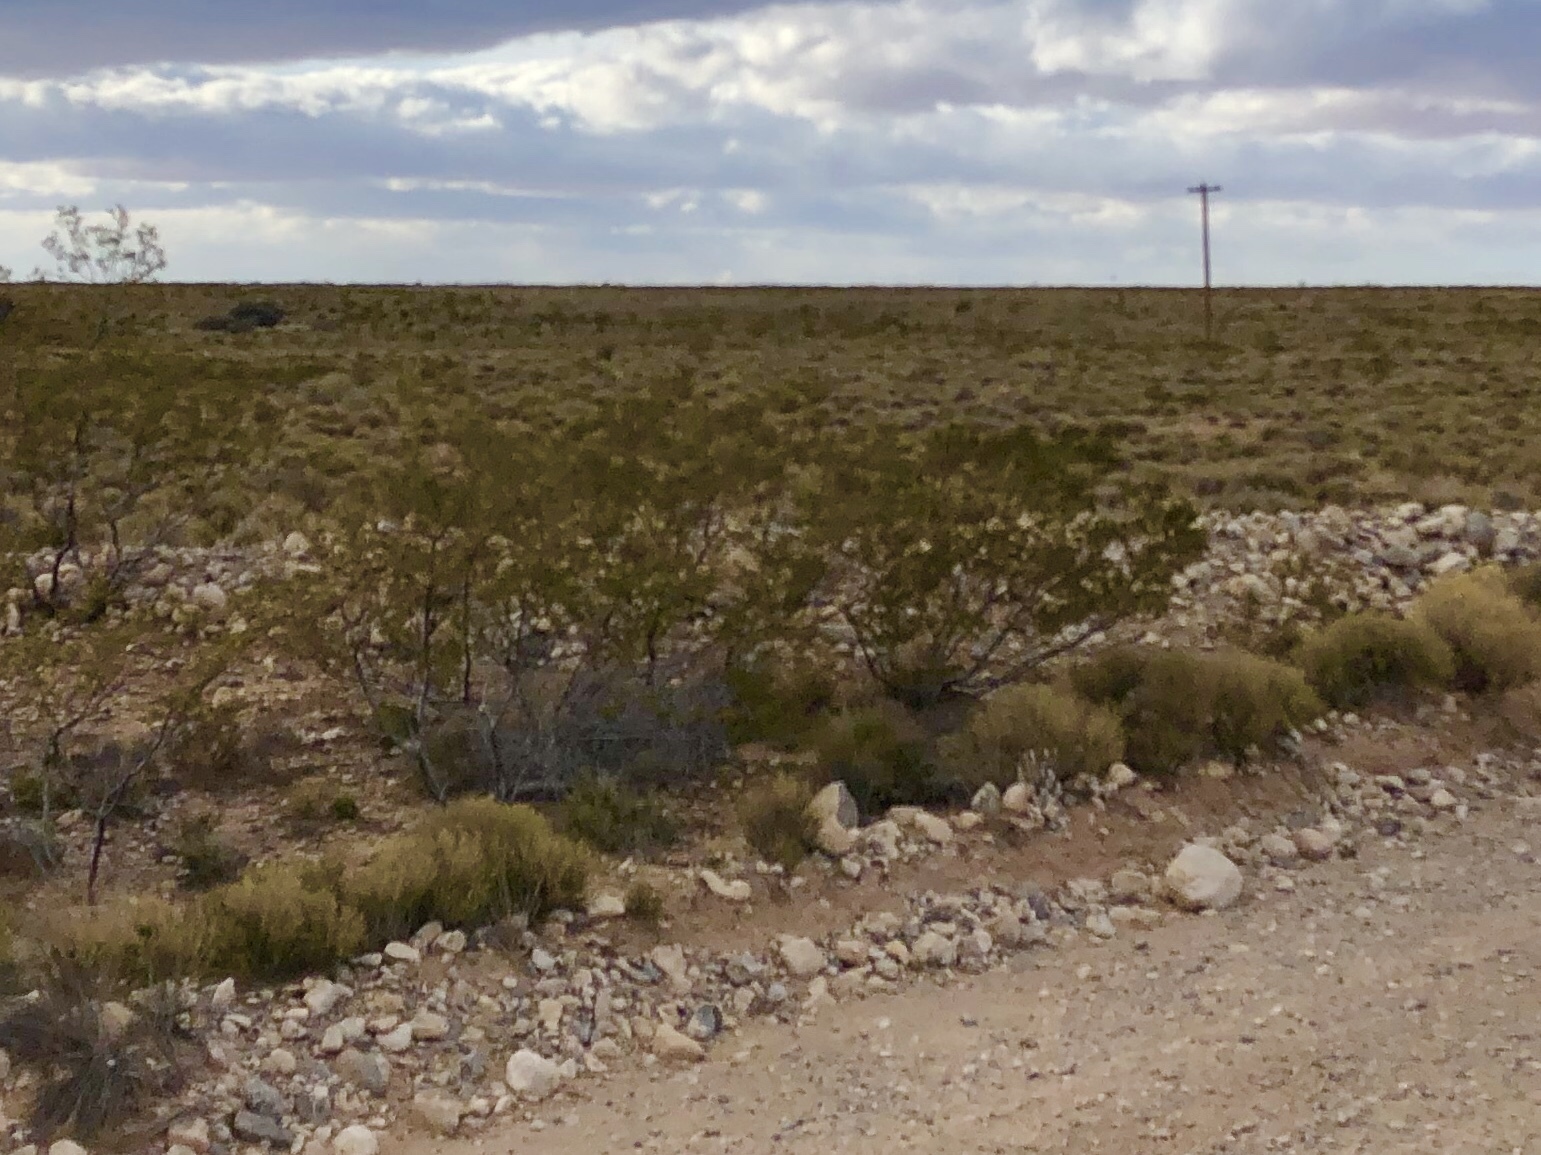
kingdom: Plantae
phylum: Tracheophyta
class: Magnoliopsida
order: Zygophyllales
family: Zygophyllaceae
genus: Larrea
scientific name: Larrea tridentata
